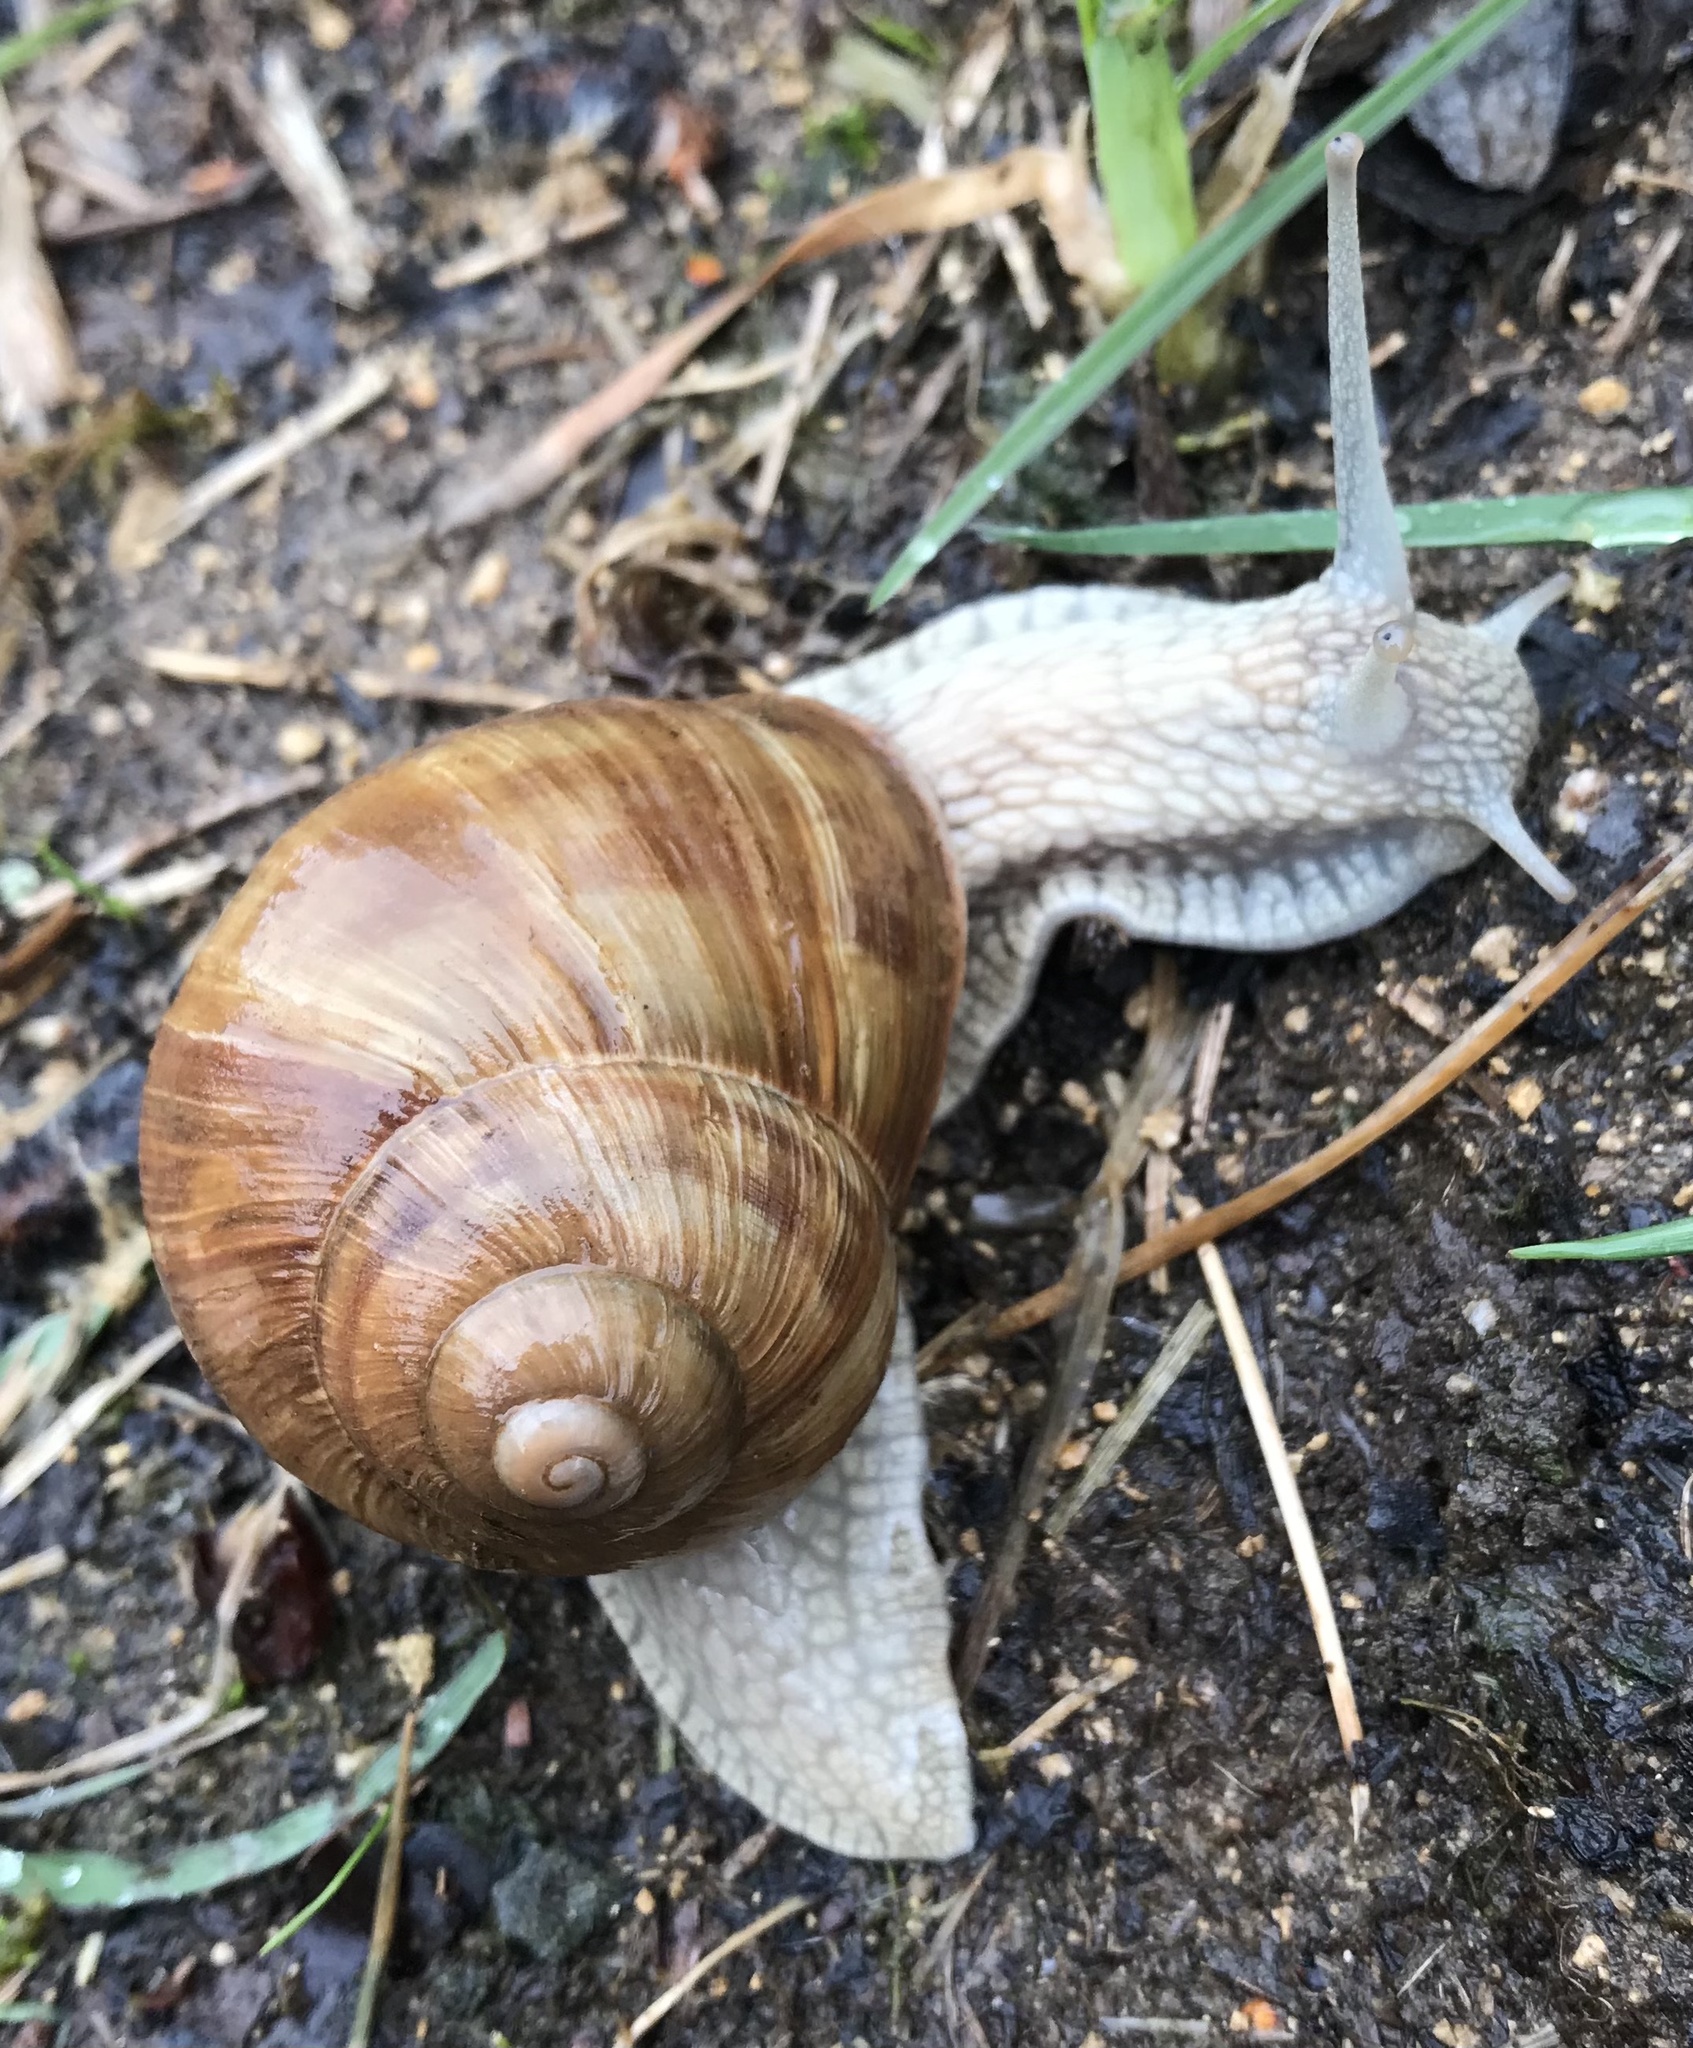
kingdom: Animalia
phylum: Mollusca
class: Gastropoda
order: Stylommatophora
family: Helicidae
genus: Helix
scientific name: Helix pomatia
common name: Roman snail
